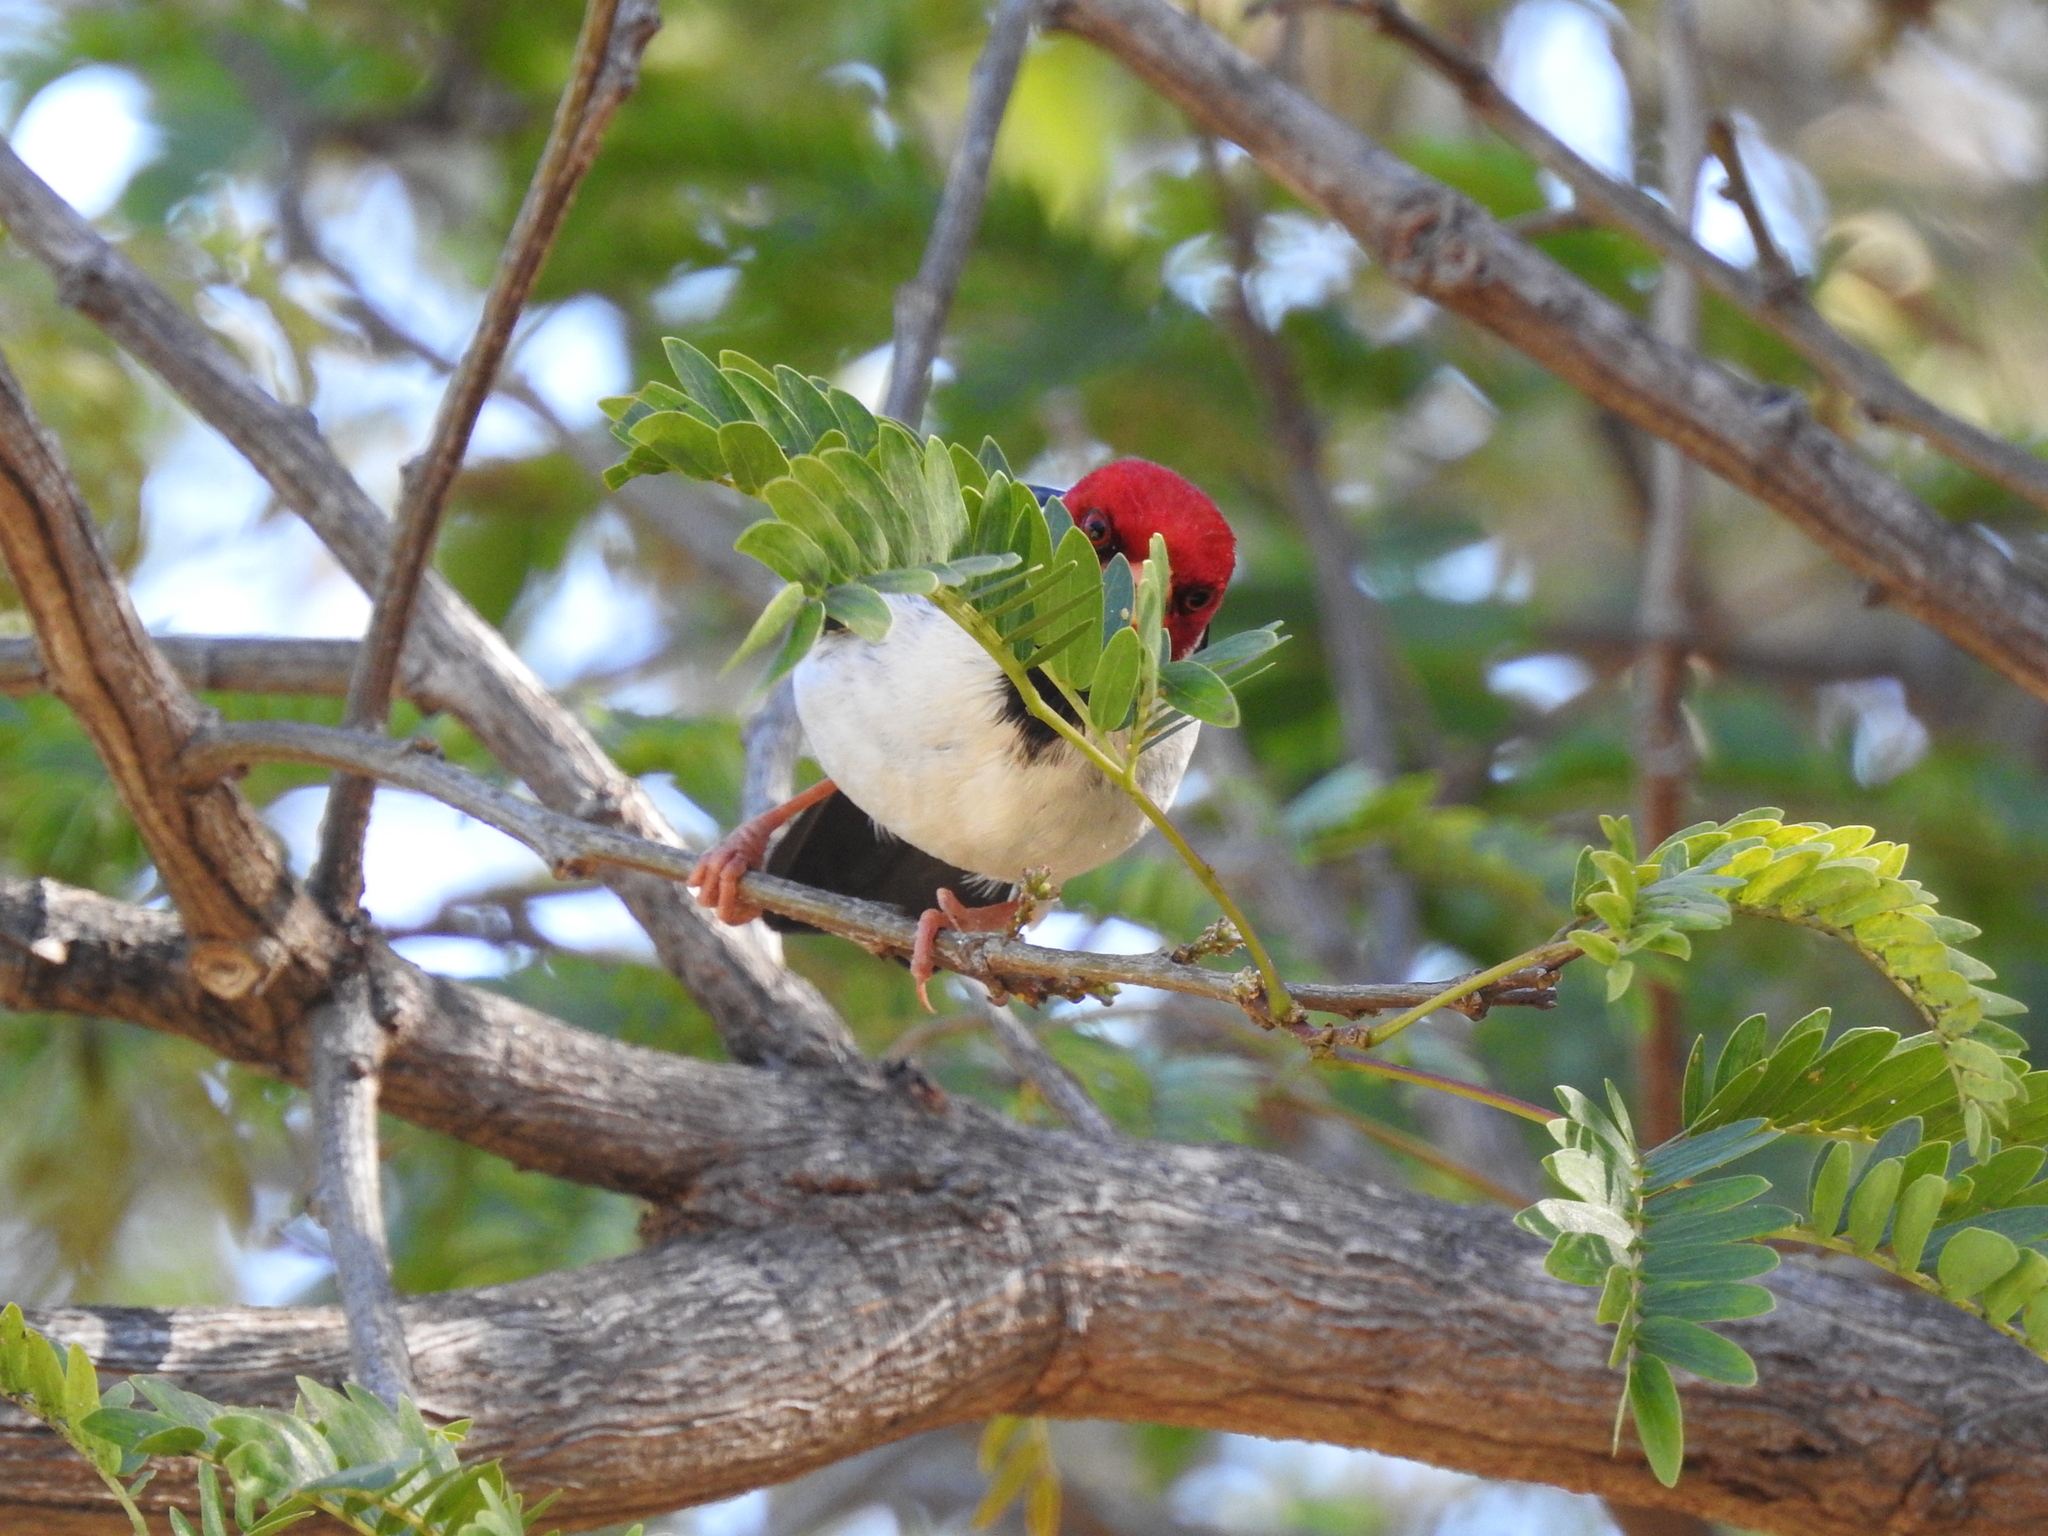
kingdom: Animalia
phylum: Chordata
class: Aves
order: Passeriformes
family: Thraupidae
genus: Paroaria
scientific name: Paroaria capitata
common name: Yellow-billed cardinal
